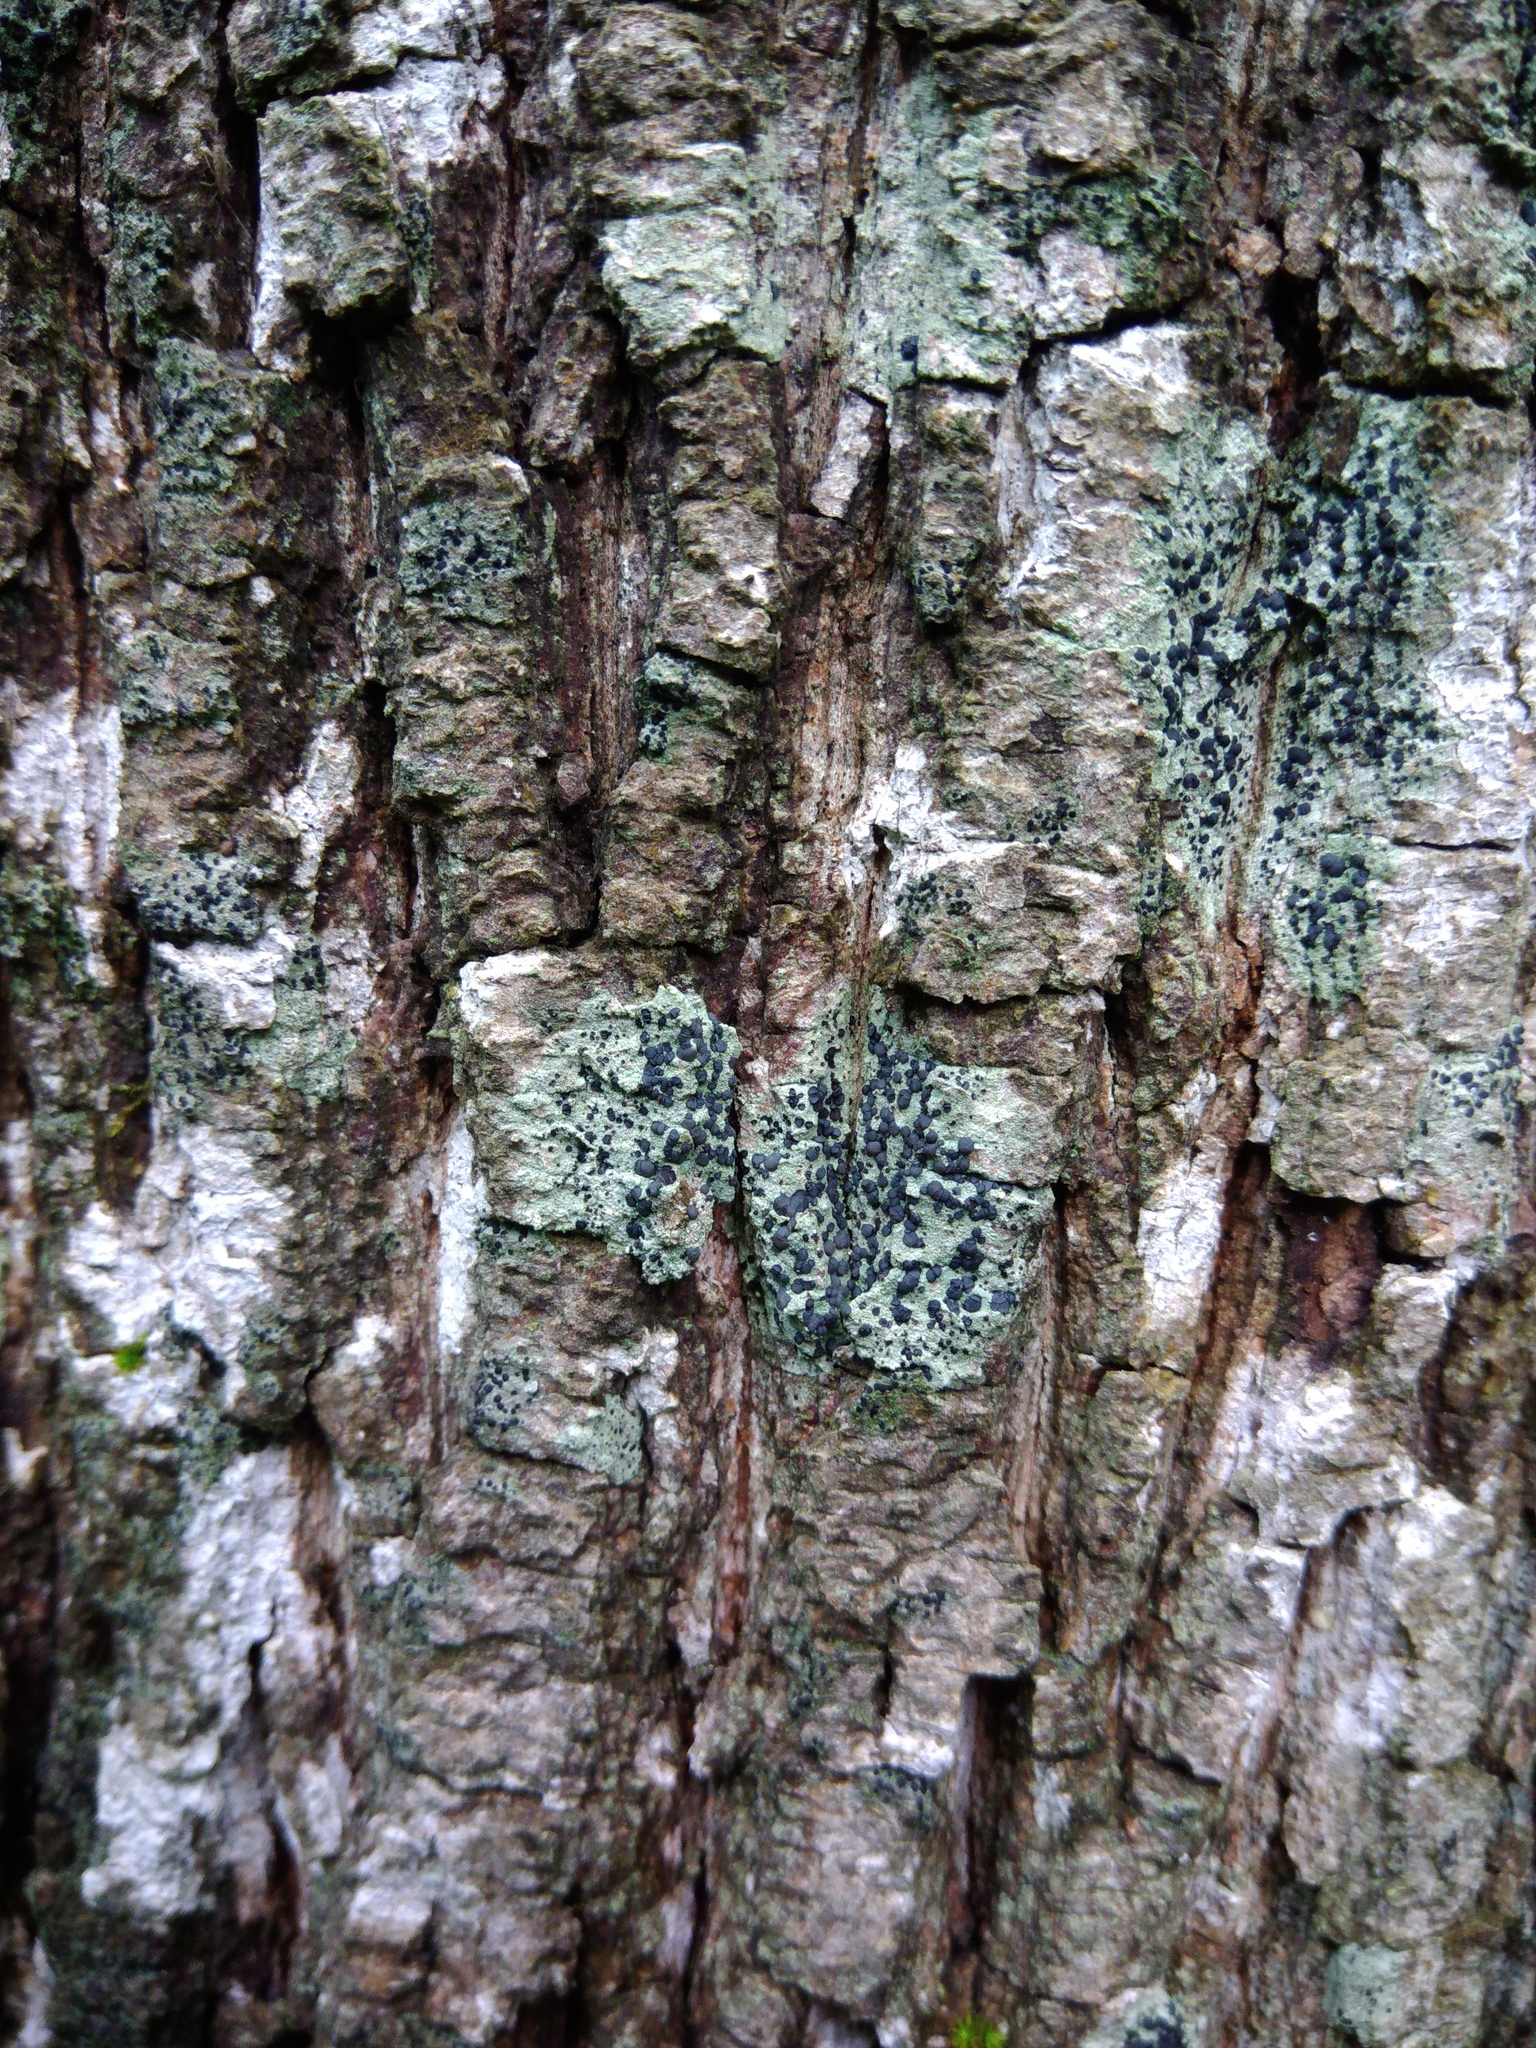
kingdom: Fungi
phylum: Ascomycota
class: Lecanoromycetes
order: Lecanorales
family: Lecanoraceae
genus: Lecidella
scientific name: Lecidella elaeochroma
